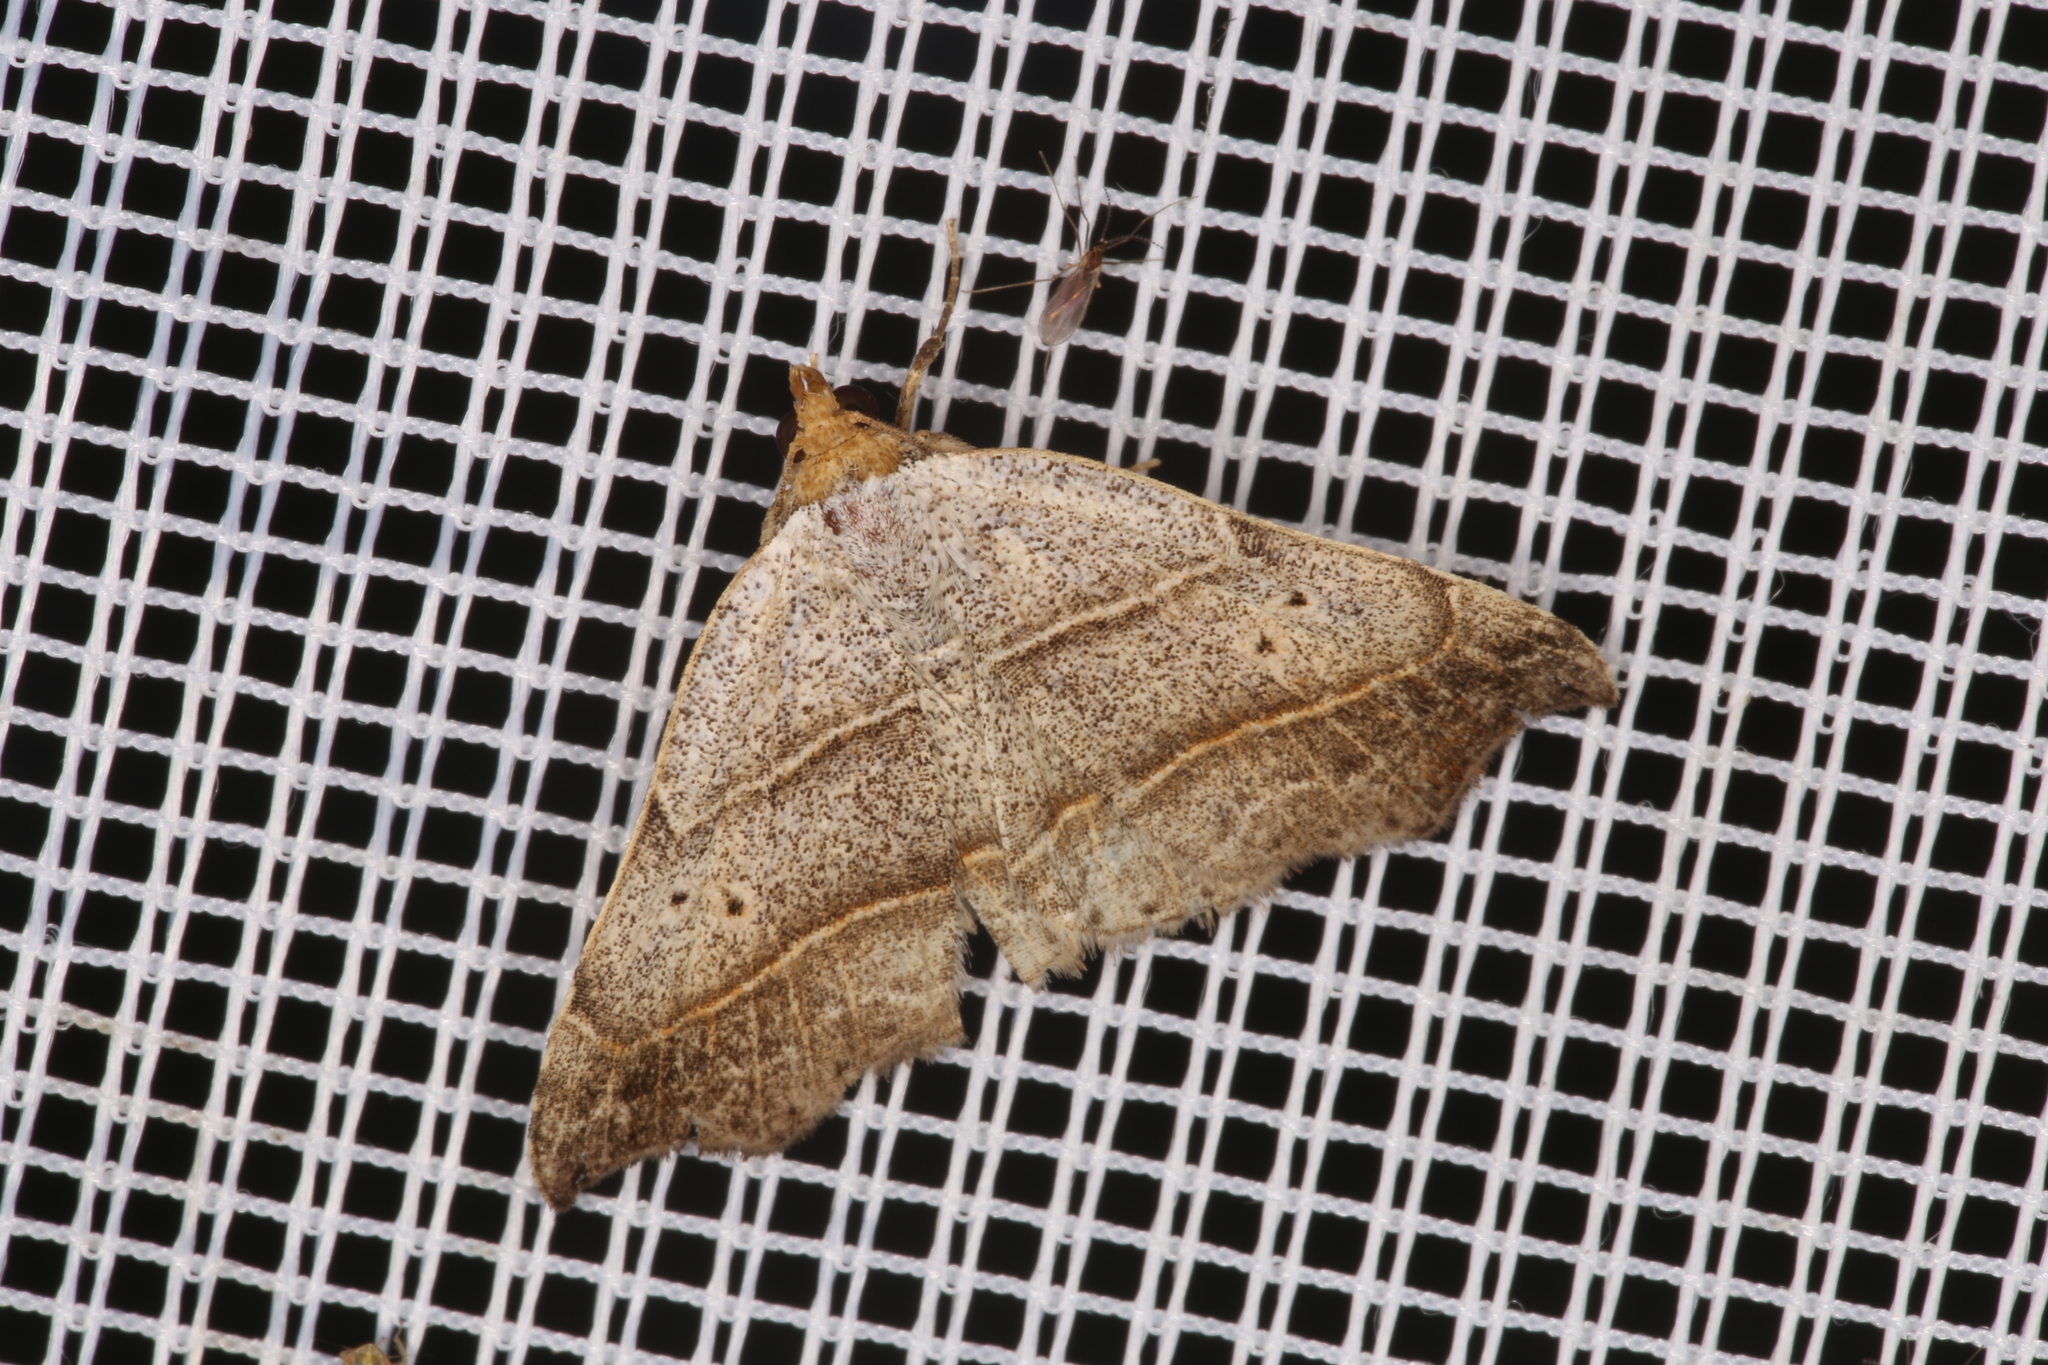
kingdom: Animalia
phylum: Arthropoda
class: Insecta
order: Lepidoptera
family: Erebidae
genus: Laspeyria
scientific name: Laspeyria flexula
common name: Beautiful hook-tip
